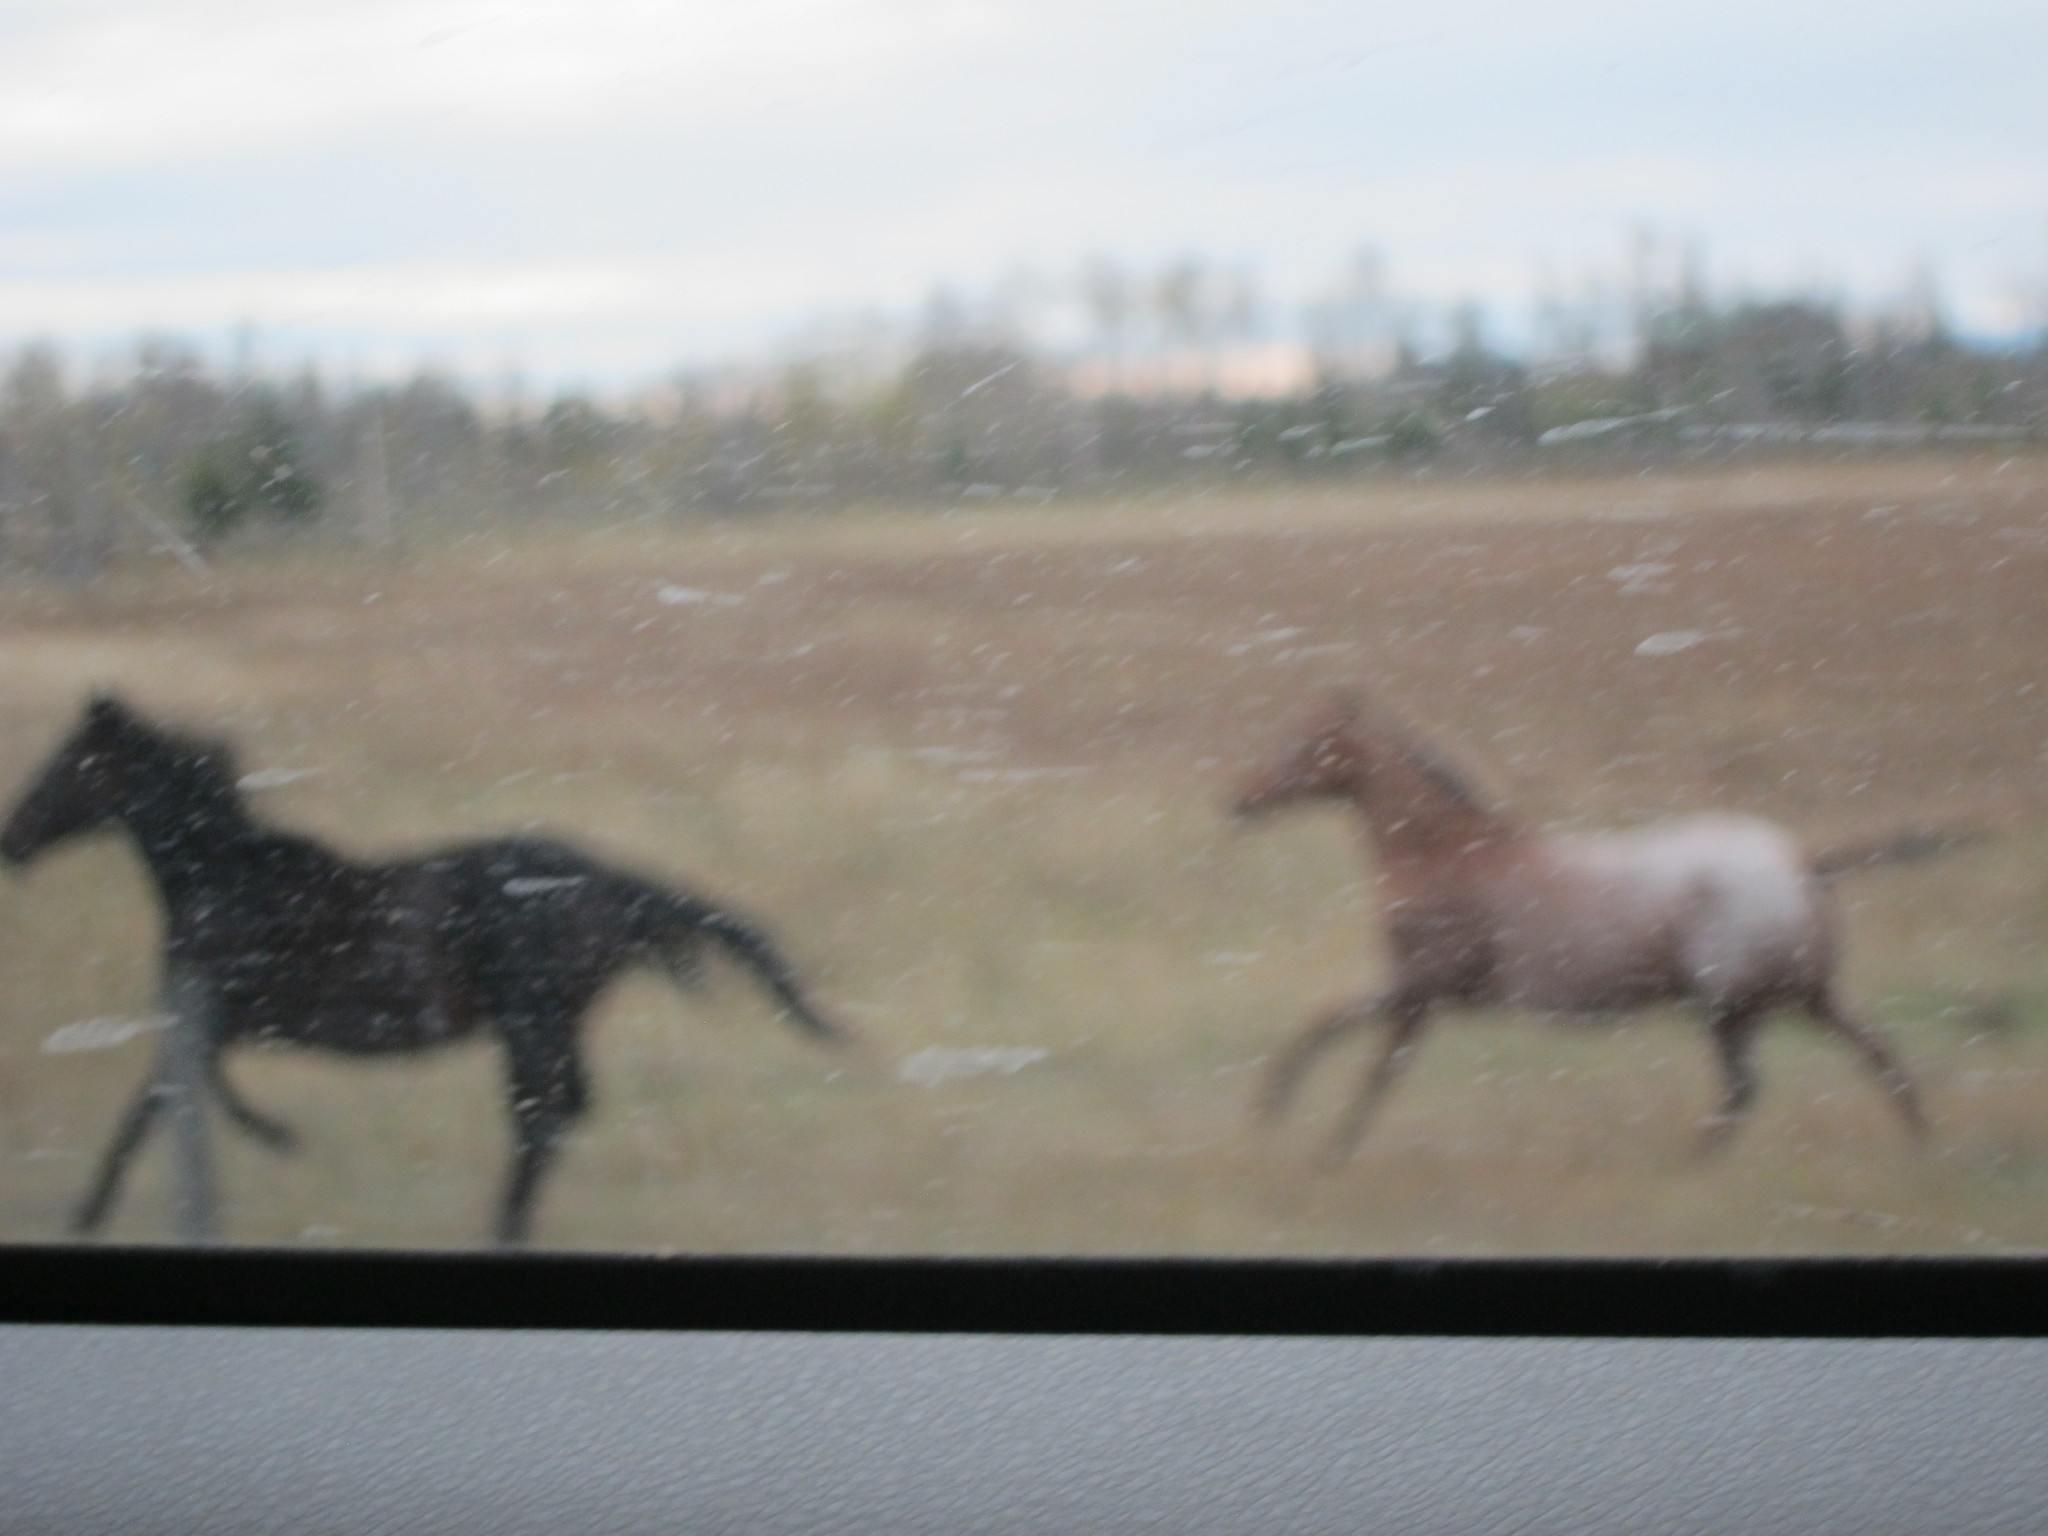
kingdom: Animalia
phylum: Chordata
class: Mammalia
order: Perissodactyla
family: Equidae
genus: Equus
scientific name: Equus caballus
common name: Horse
